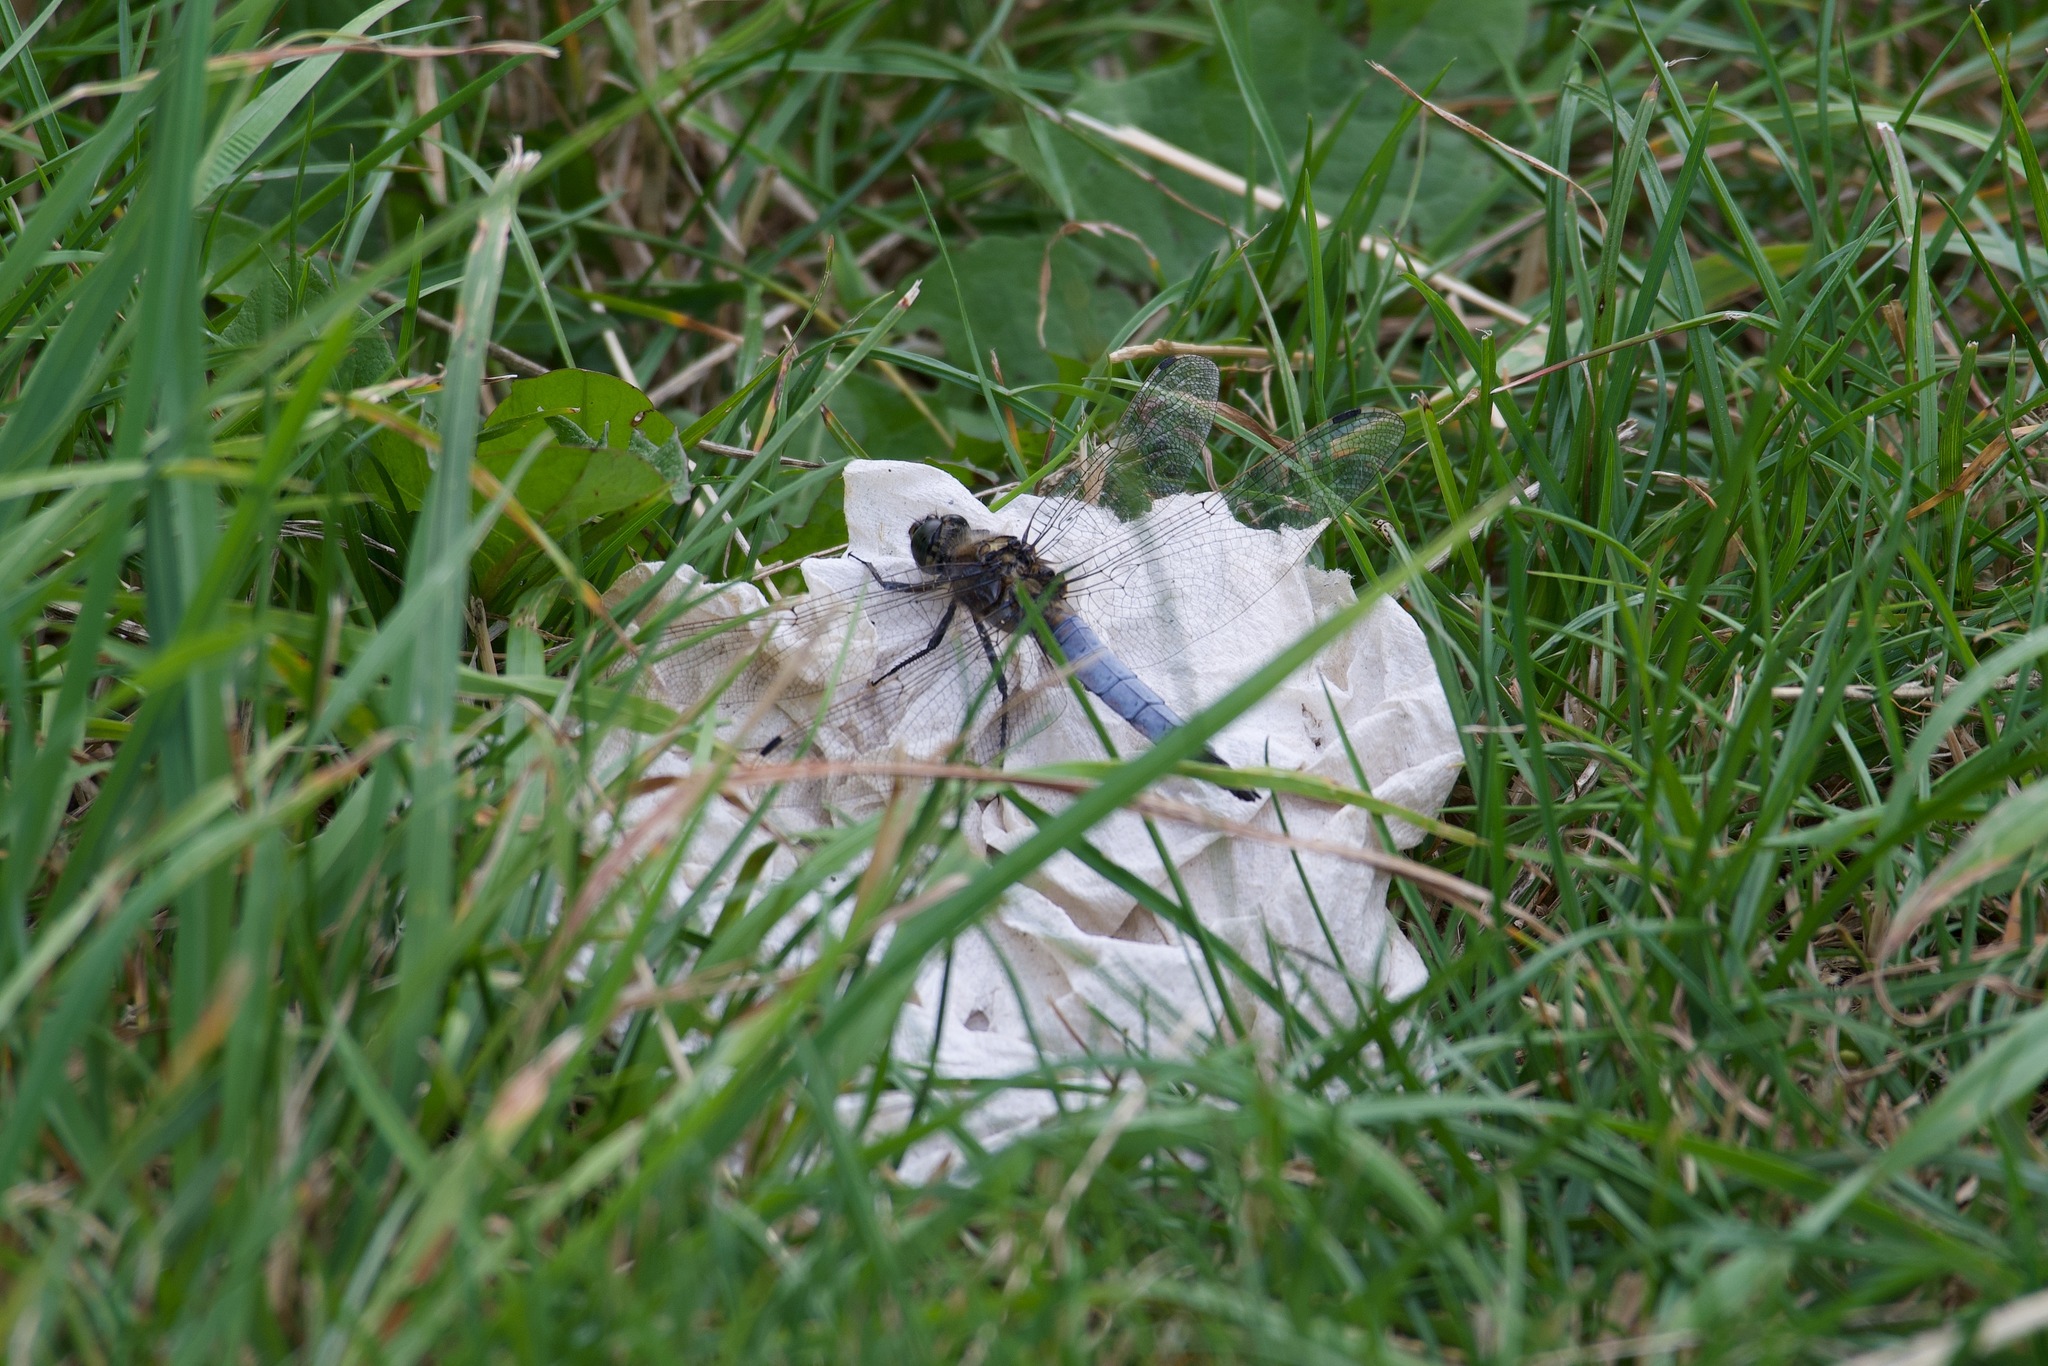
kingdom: Animalia
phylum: Arthropoda
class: Insecta
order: Odonata
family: Libellulidae
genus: Orthetrum
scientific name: Orthetrum cancellatum
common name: Black-tailed skimmer
